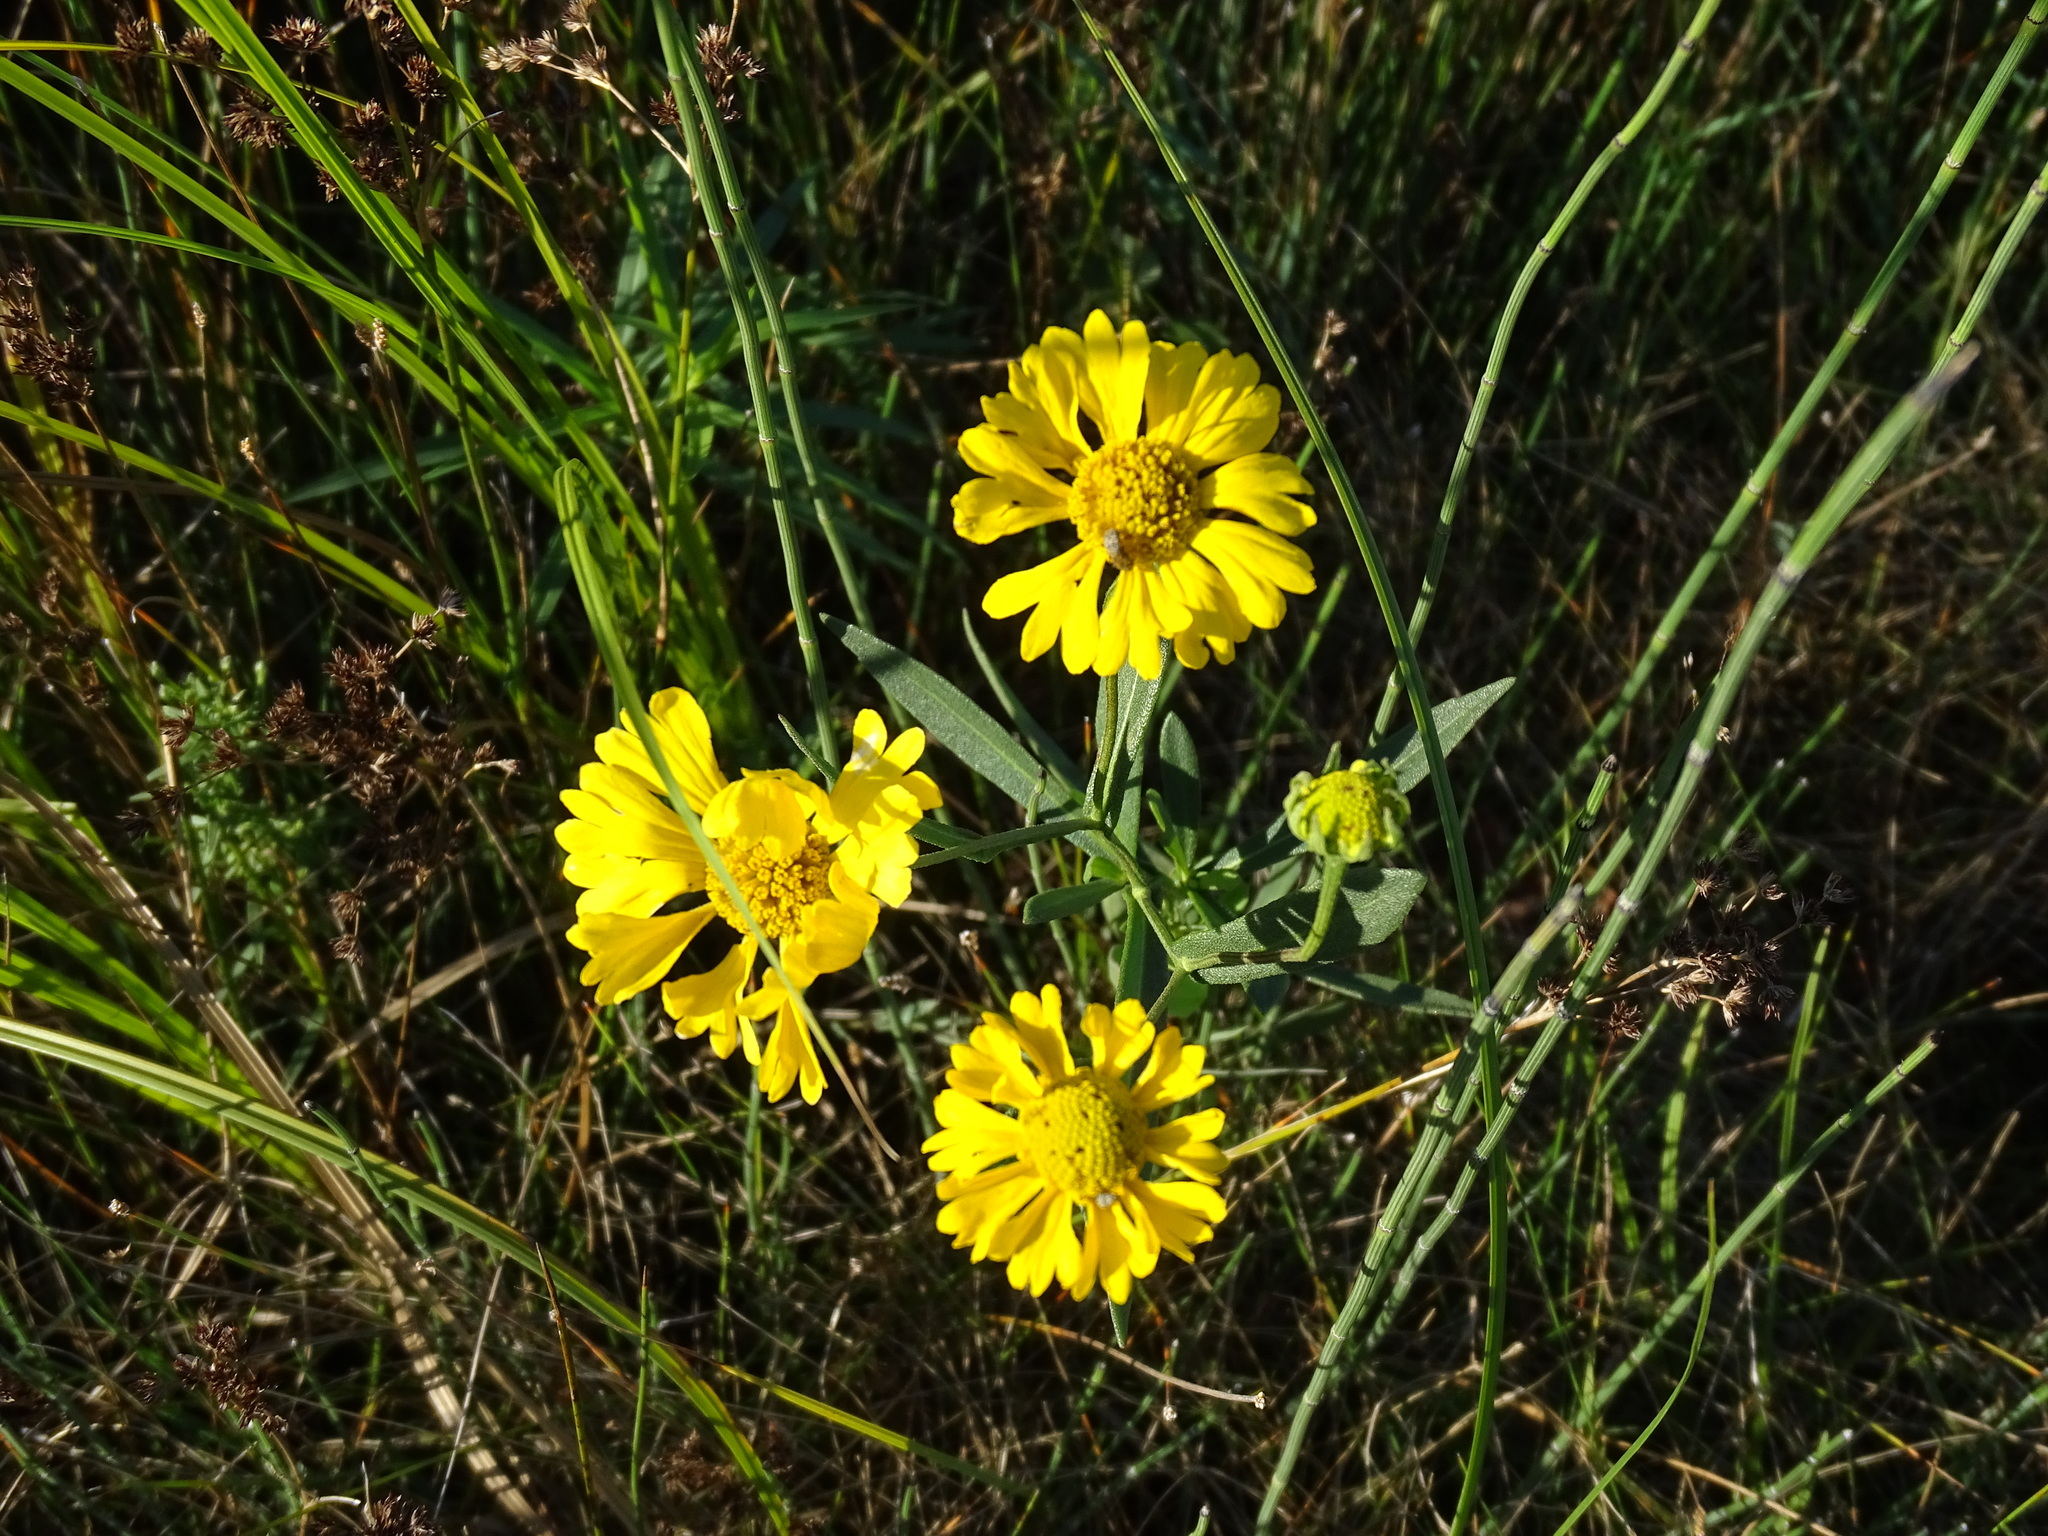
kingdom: Plantae
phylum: Tracheophyta
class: Magnoliopsida
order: Asterales
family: Asteraceae
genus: Helenium
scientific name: Helenium autumnale
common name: Sneezeweed
